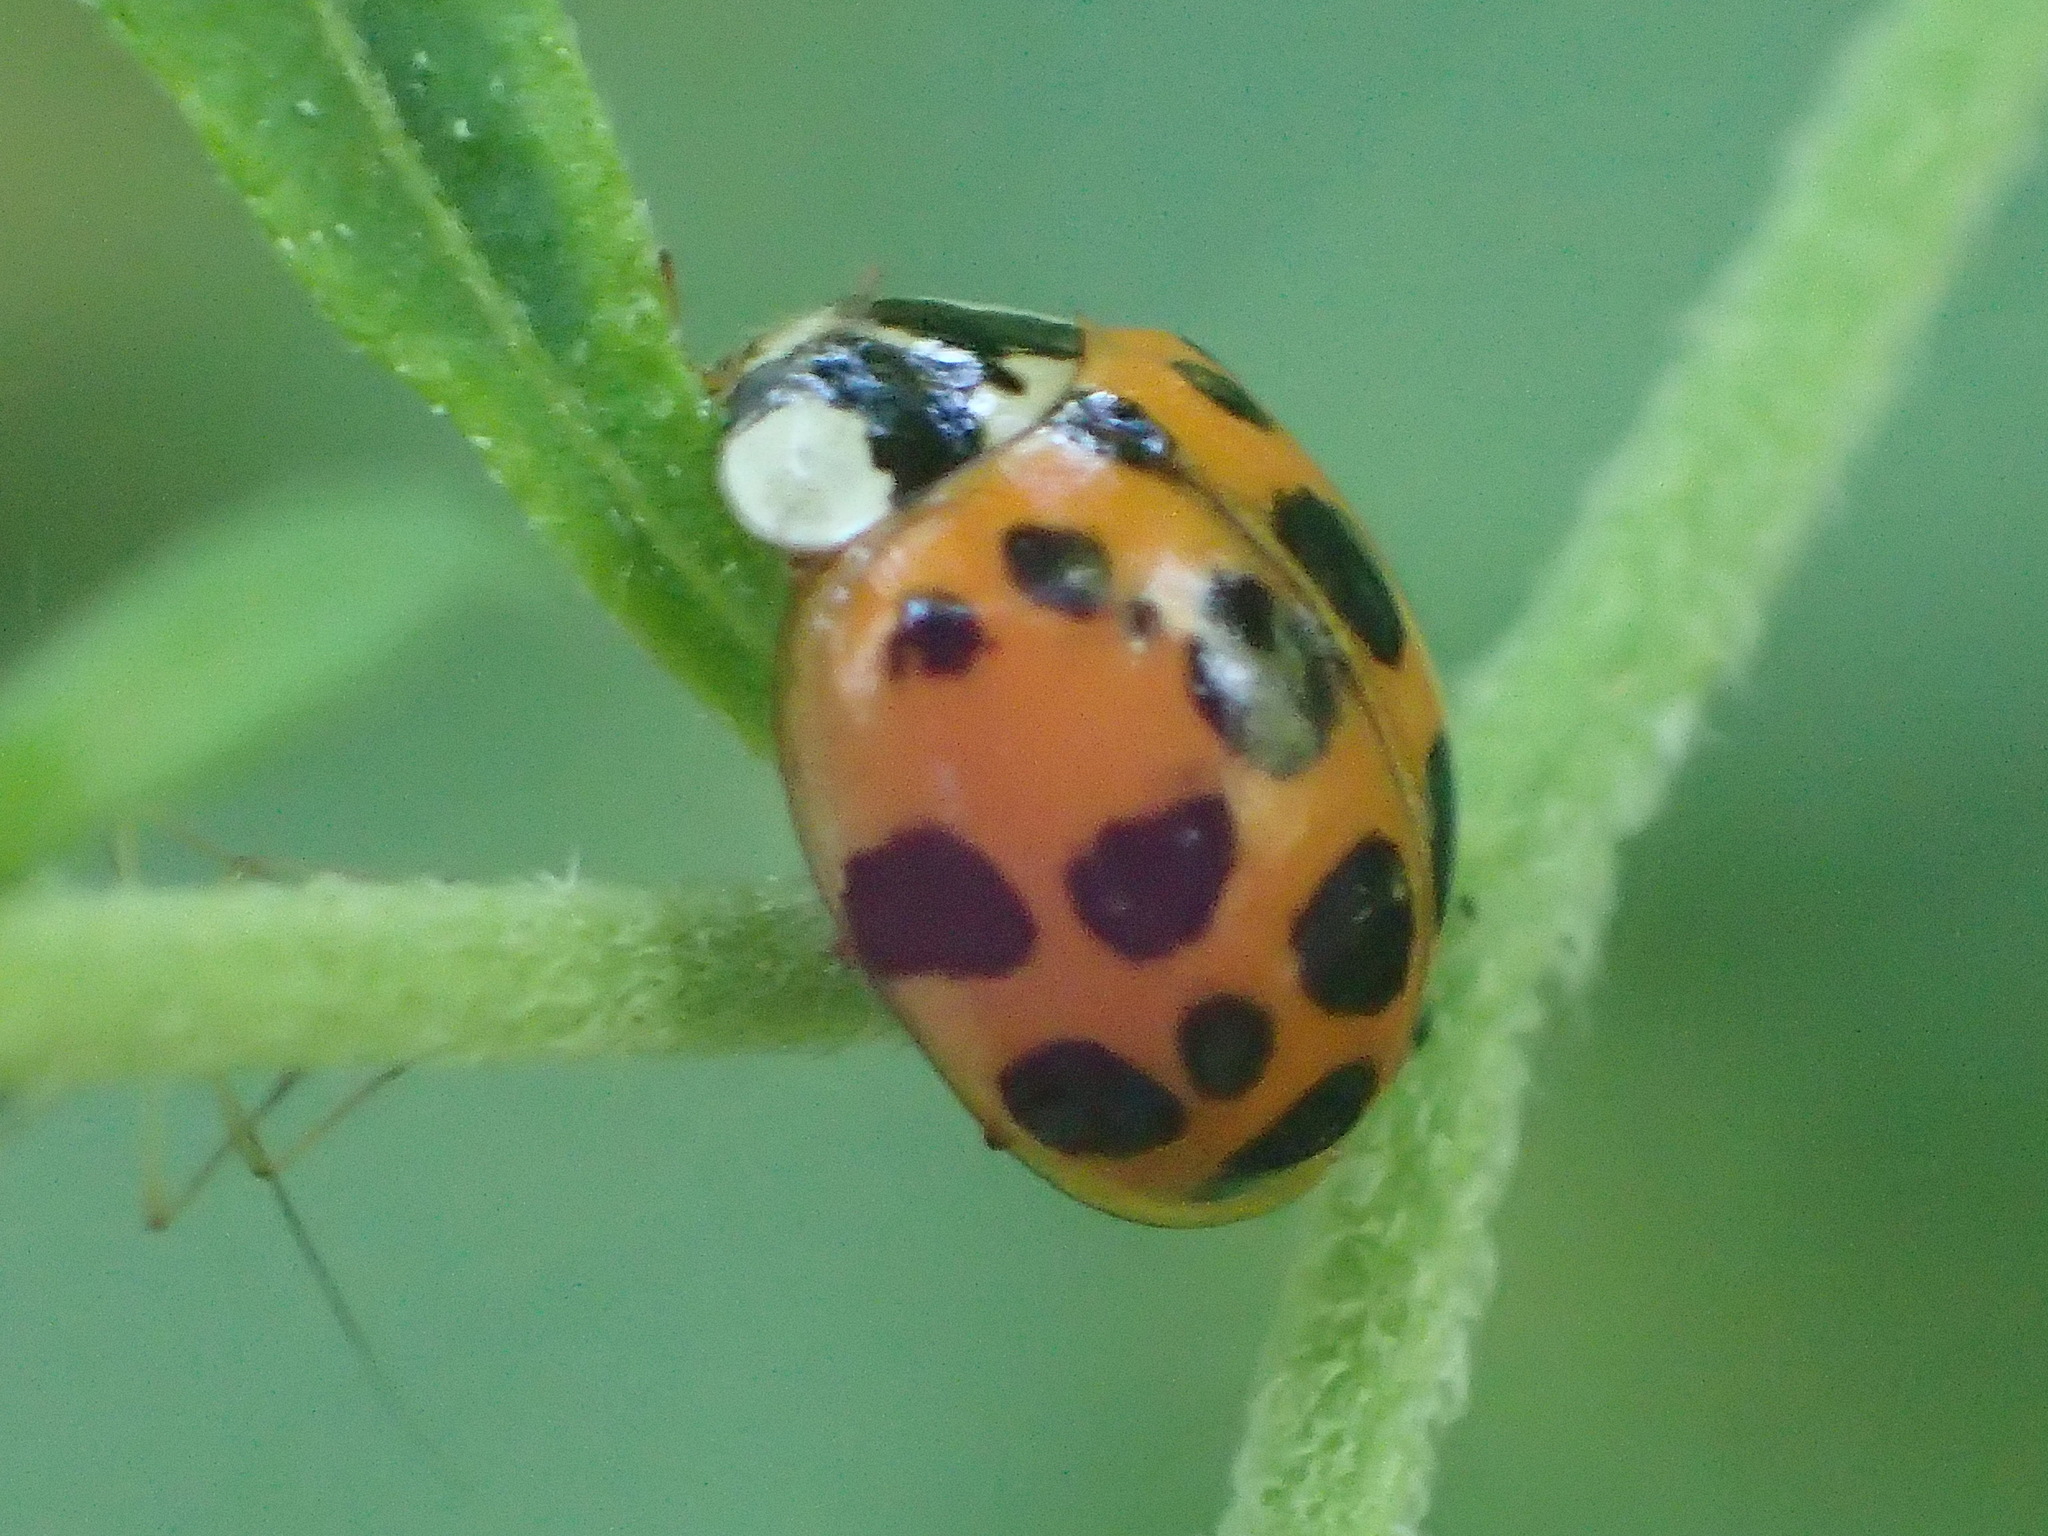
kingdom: Animalia
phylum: Arthropoda
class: Insecta
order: Coleoptera
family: Coccinellidae
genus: Harmonia
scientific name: Harmonia axyridis
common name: Harlequin ladybird
